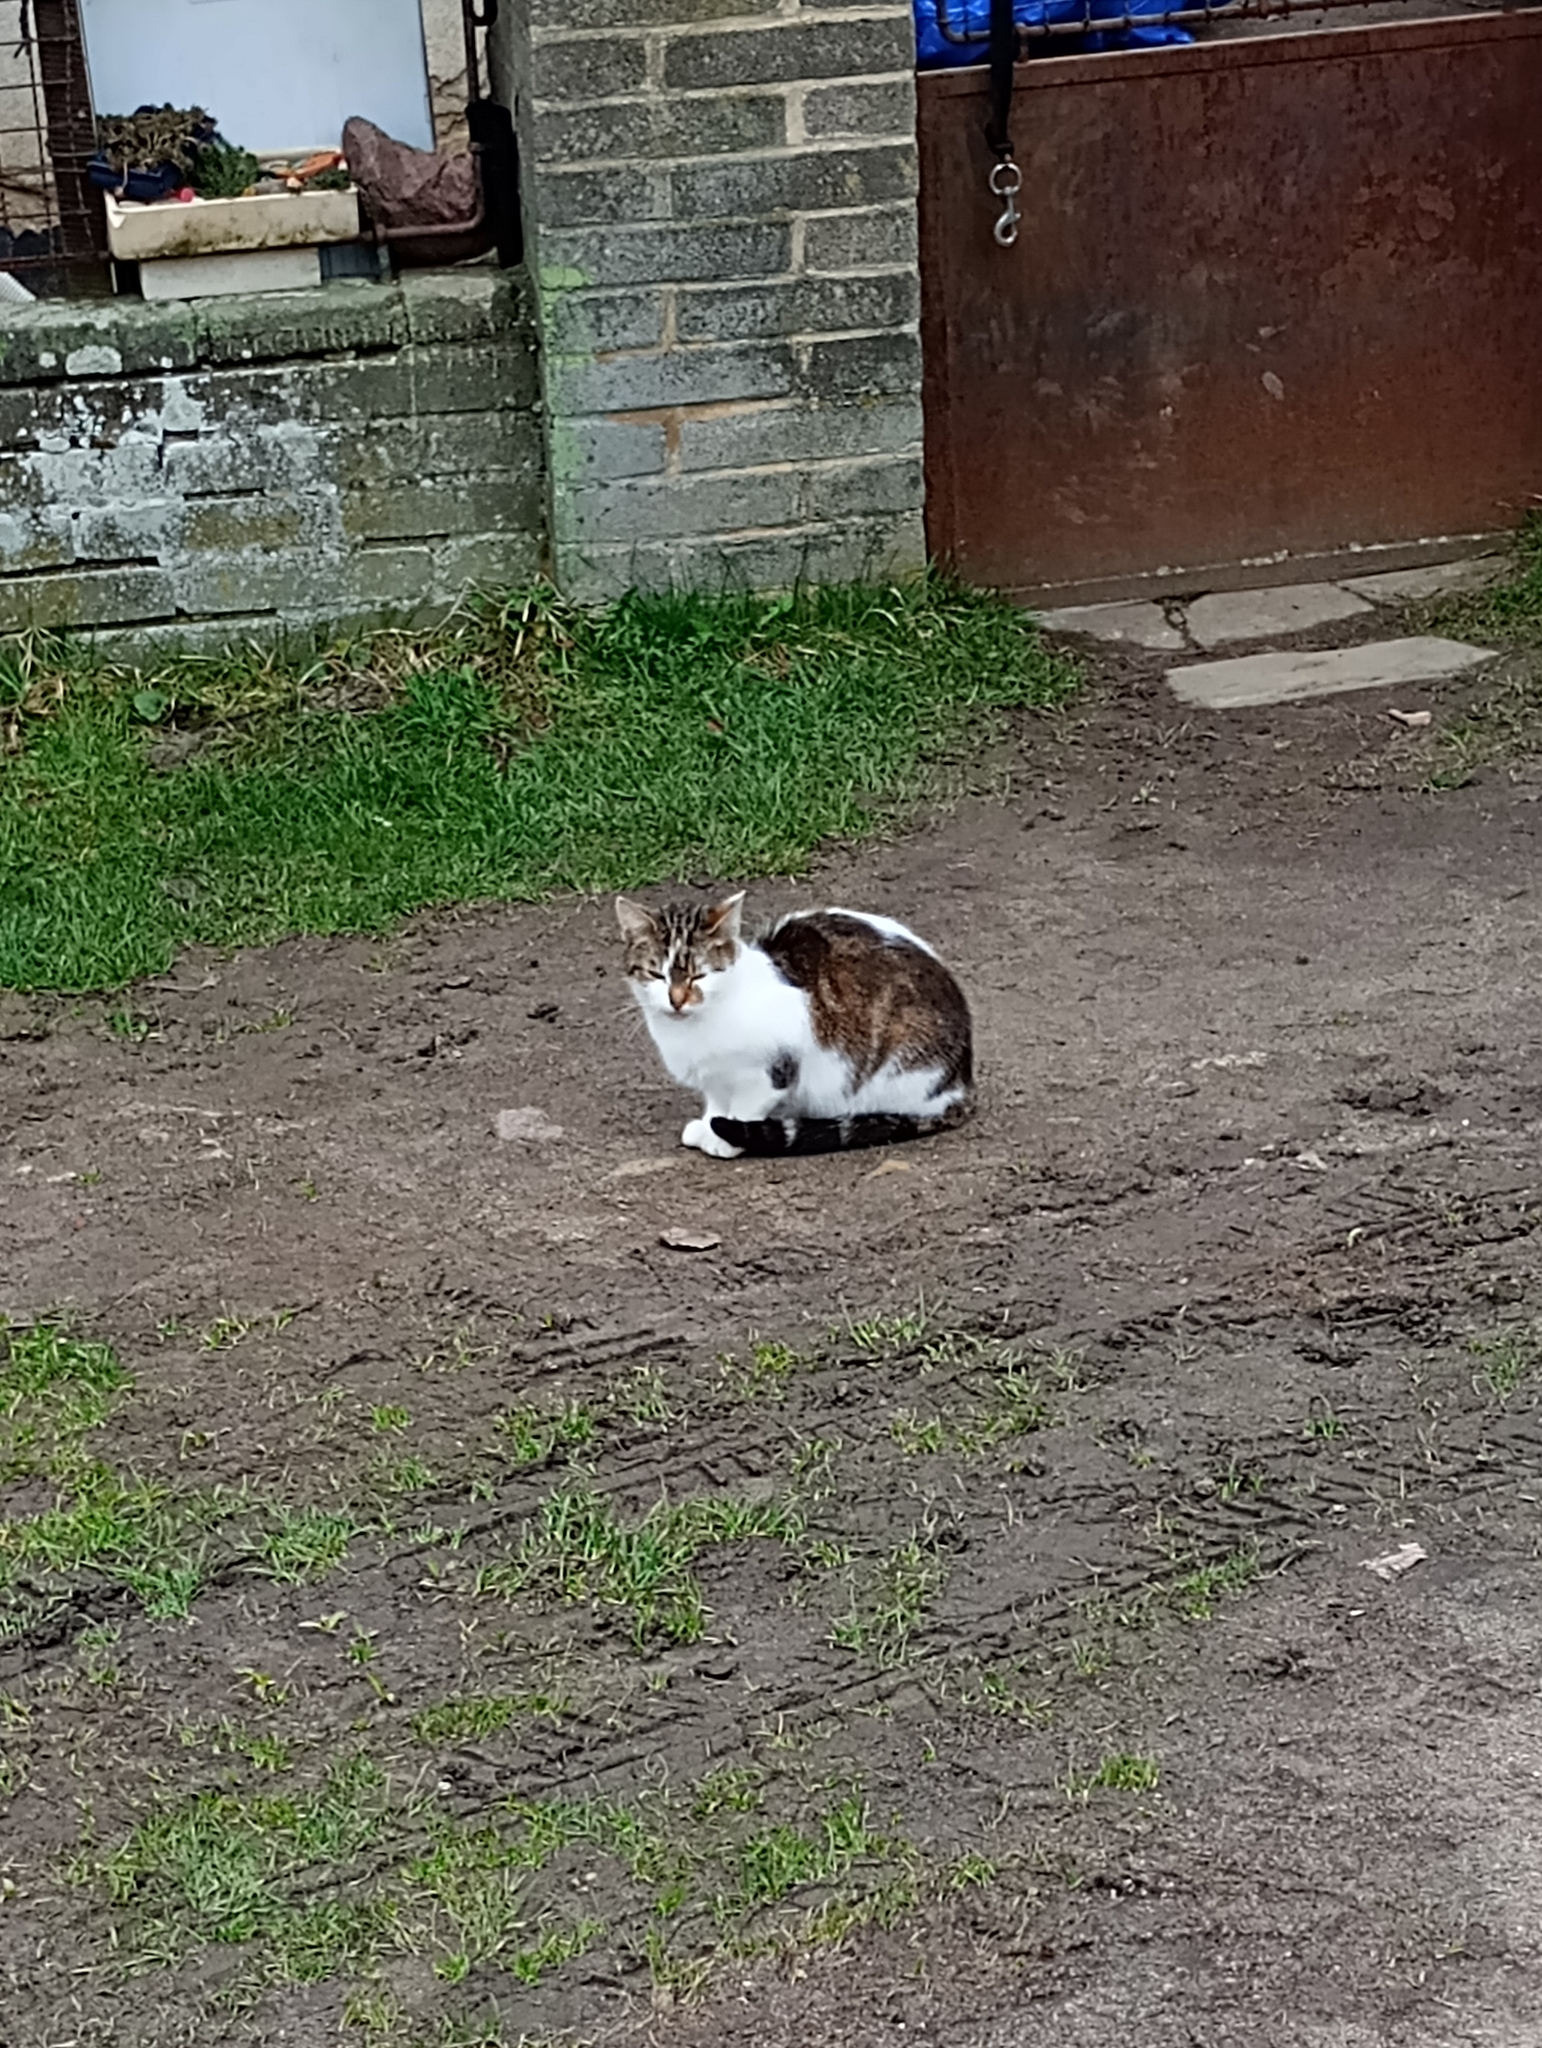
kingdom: Animalia
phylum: Chordata
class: Mammalia
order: Carnivora
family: Felidae
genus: Felis
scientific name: Felis catus
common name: Domestic cat
